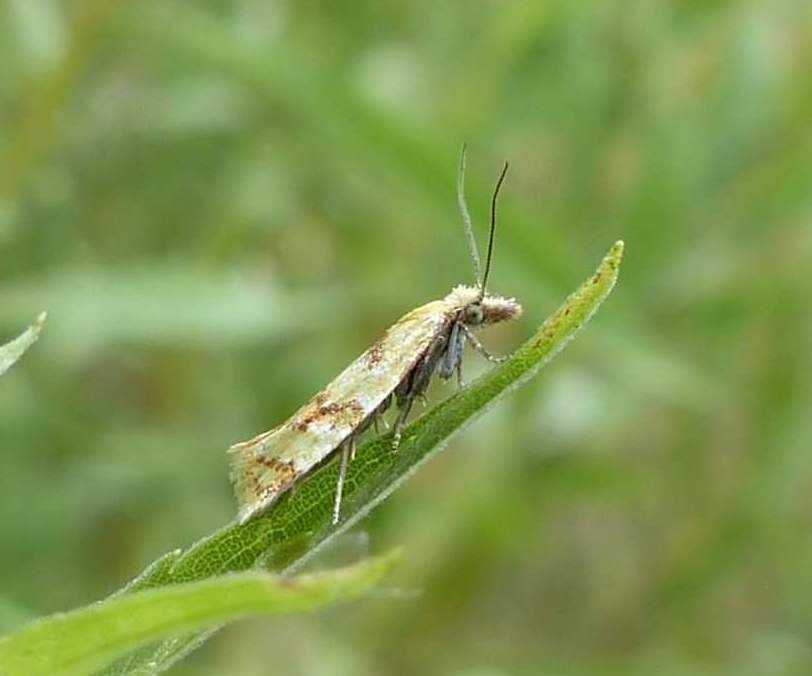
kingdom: Animalia
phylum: Arthropoda
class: Insecta
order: Lepidoptera
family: Tortricidae
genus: Phtheochroa
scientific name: Phtheochroa vitellinana
